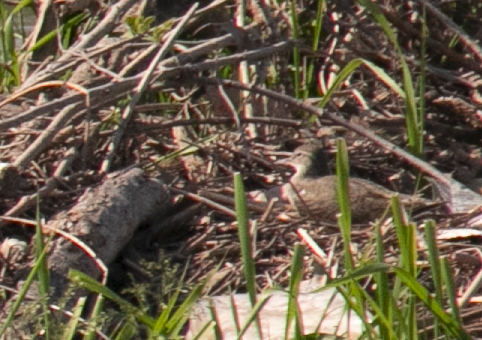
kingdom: Animalia
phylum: Chordata
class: Aves
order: Charadriiformes
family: Scolopacidae
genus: Actitis
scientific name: Actitis hypoleucos
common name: Common sandpiper
